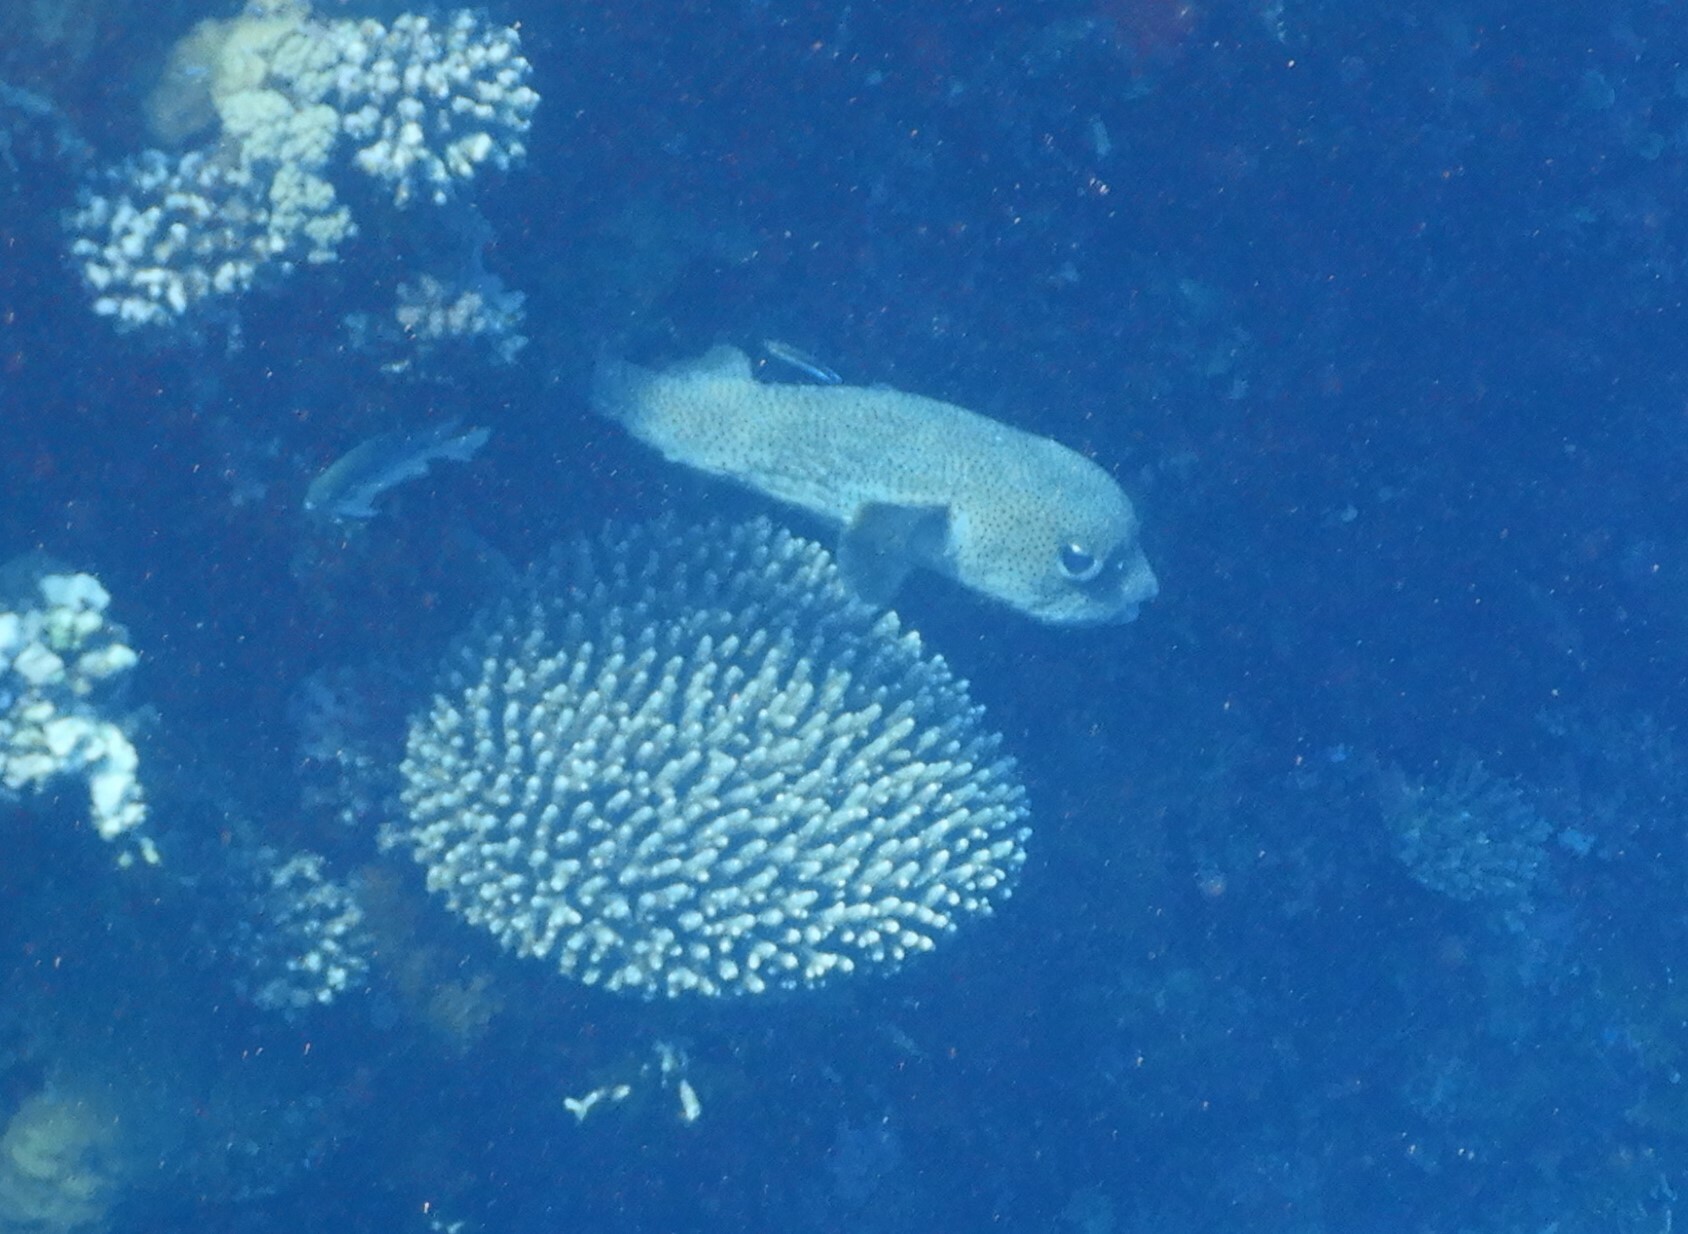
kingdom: Animalia
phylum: Chordata
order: Tetraodontiformes
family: Diodontidae
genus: Diodon
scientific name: Diodon hystrix
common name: Giant porcupinefish
